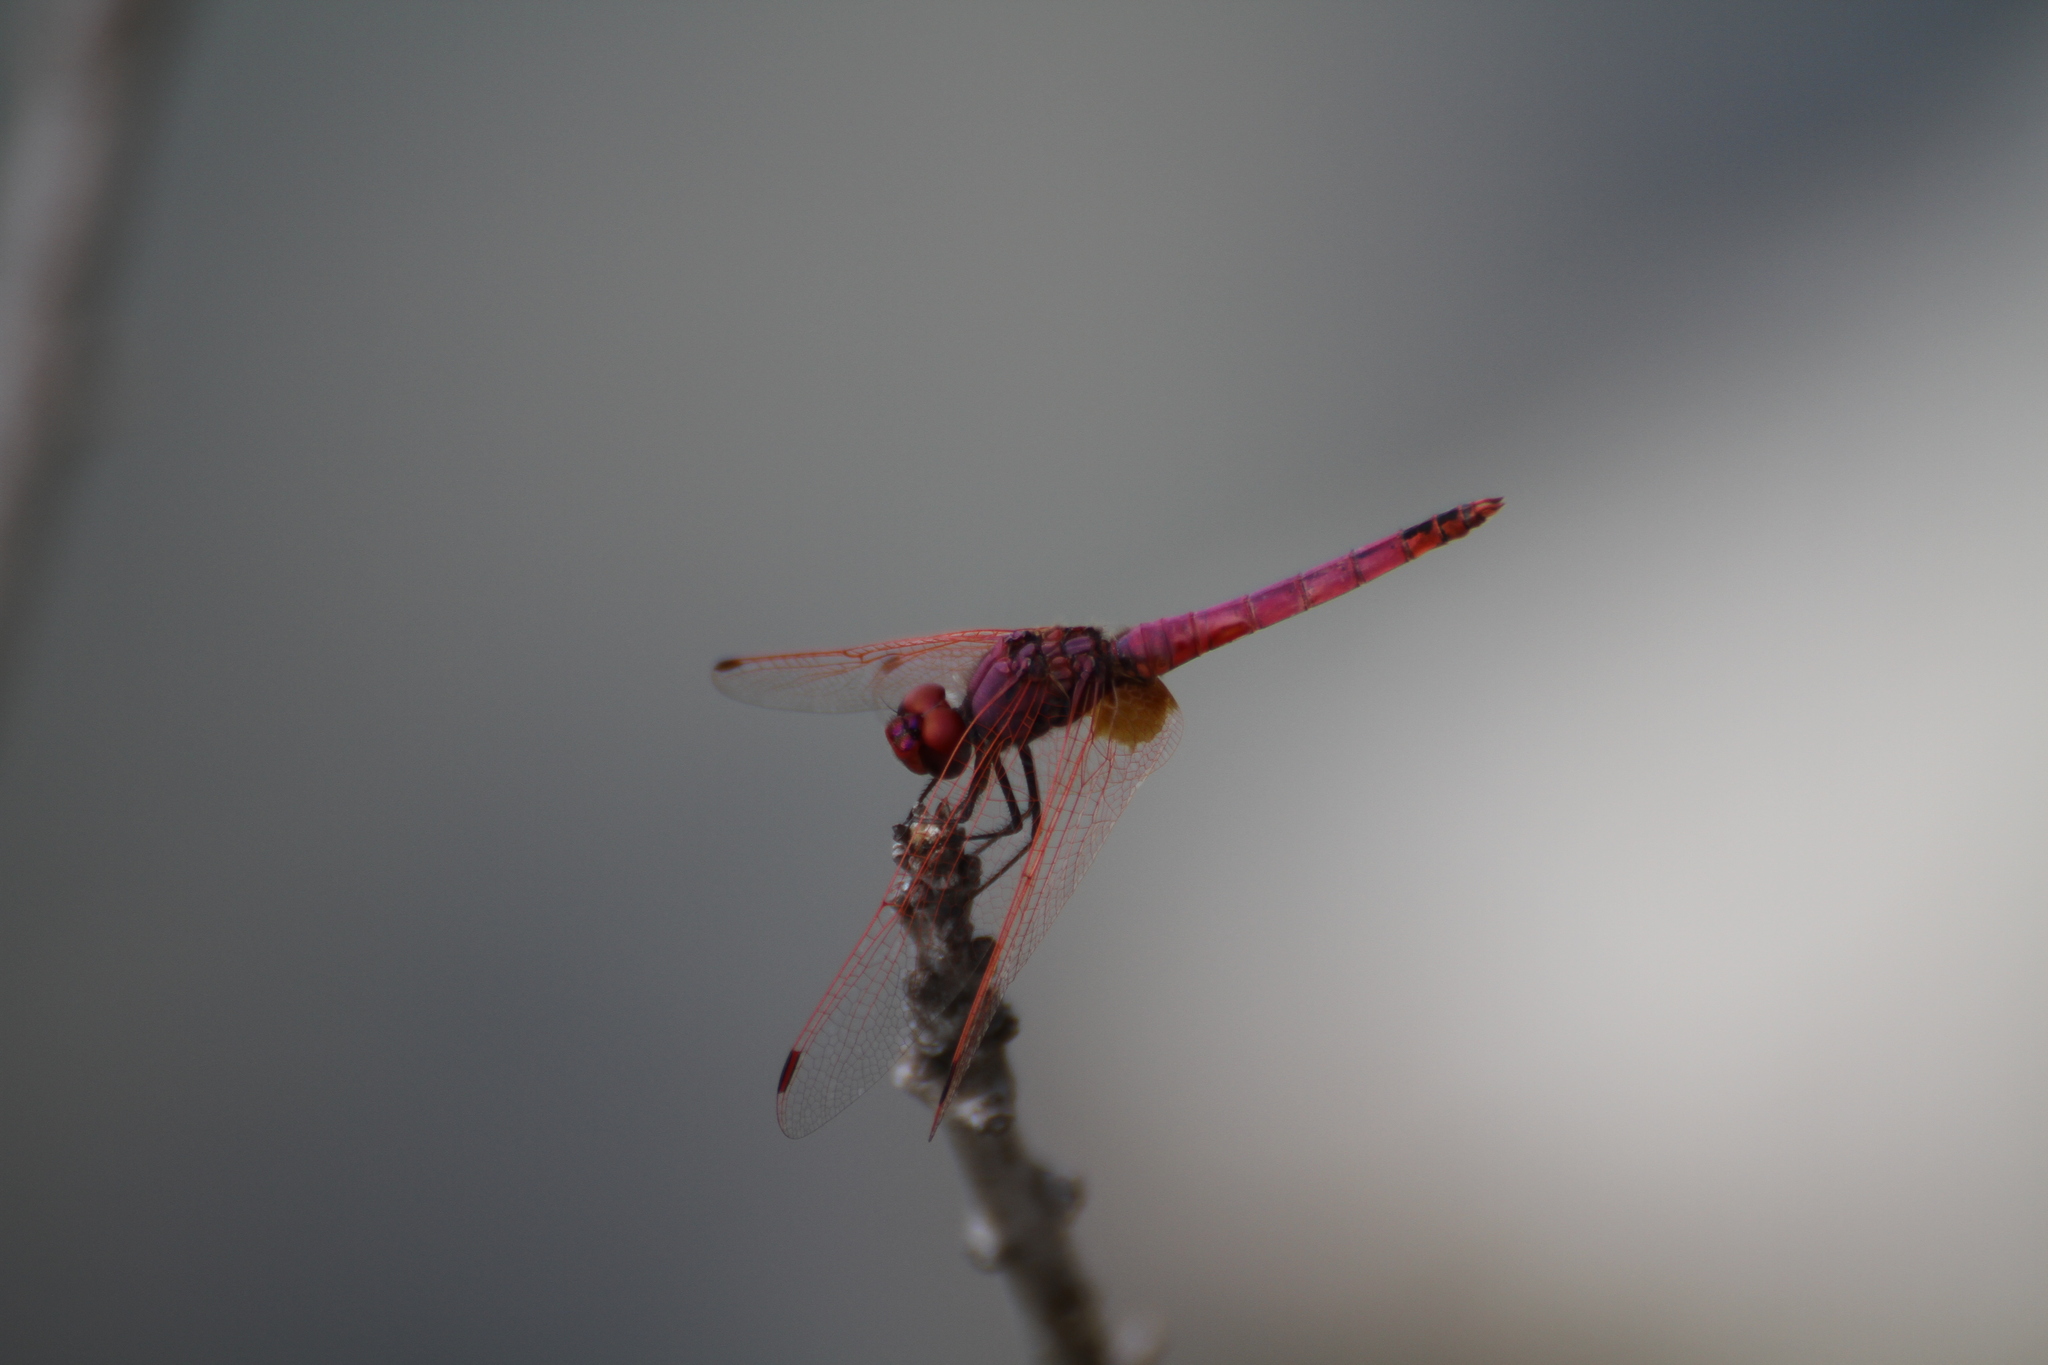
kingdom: Animalia
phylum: Arthropoda
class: Insecta
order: Odonata
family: Libellulidae
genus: Trithemis
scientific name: Trithemis annulata
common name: Violet dropwing
